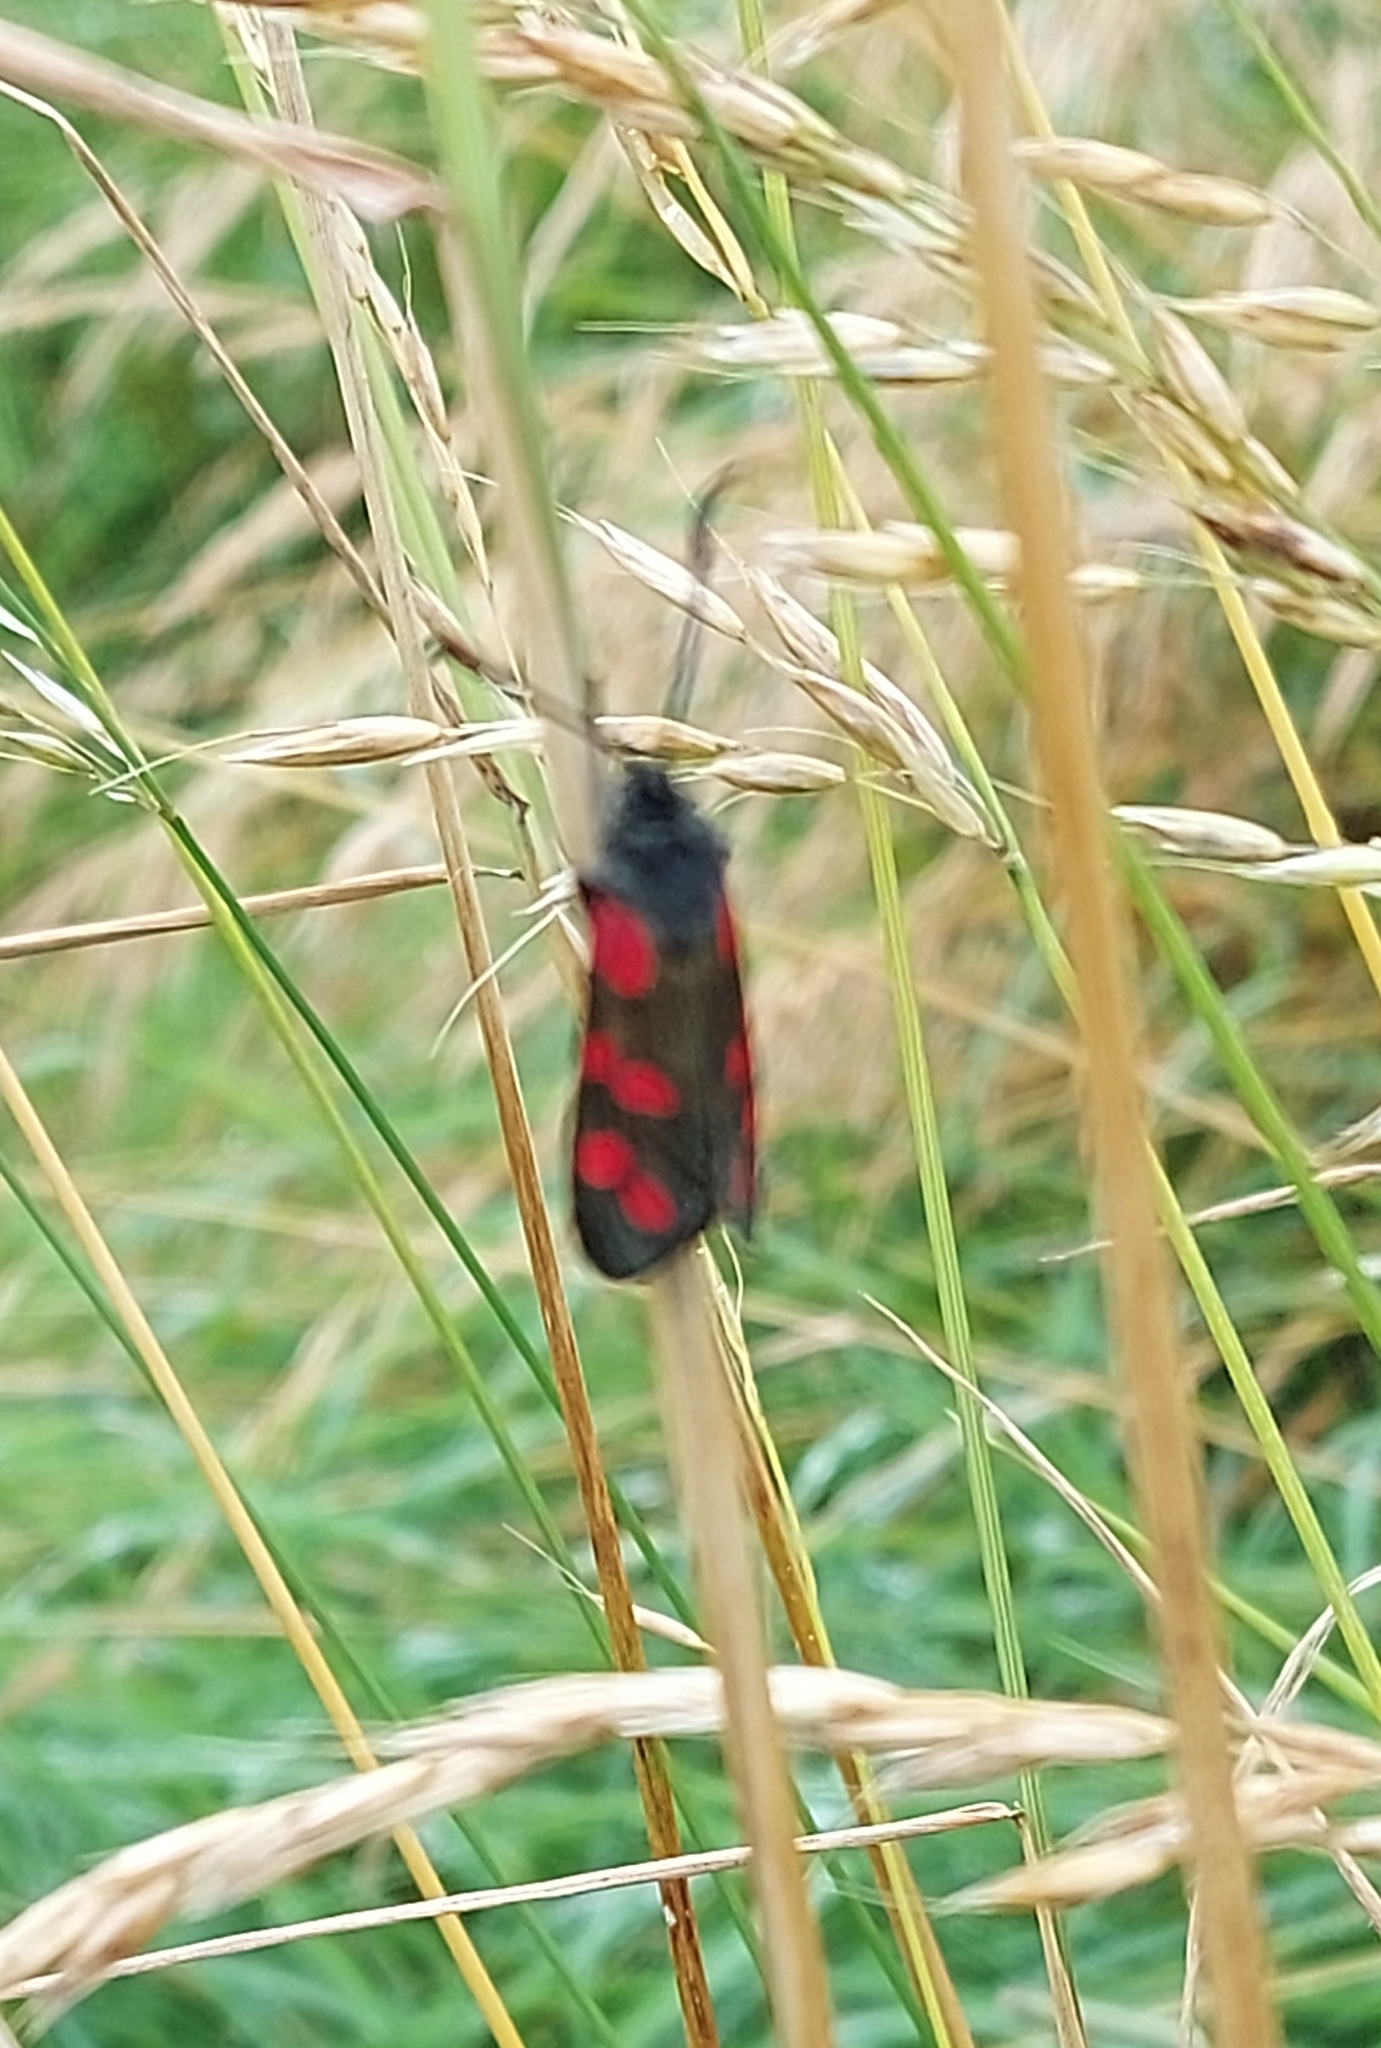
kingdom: Animalia
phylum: Arthropoda
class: Insecta
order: Lepidoptera
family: Zygaenidae
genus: Zygaena
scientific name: Zygaena filipendulae
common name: Six-spot burnet
